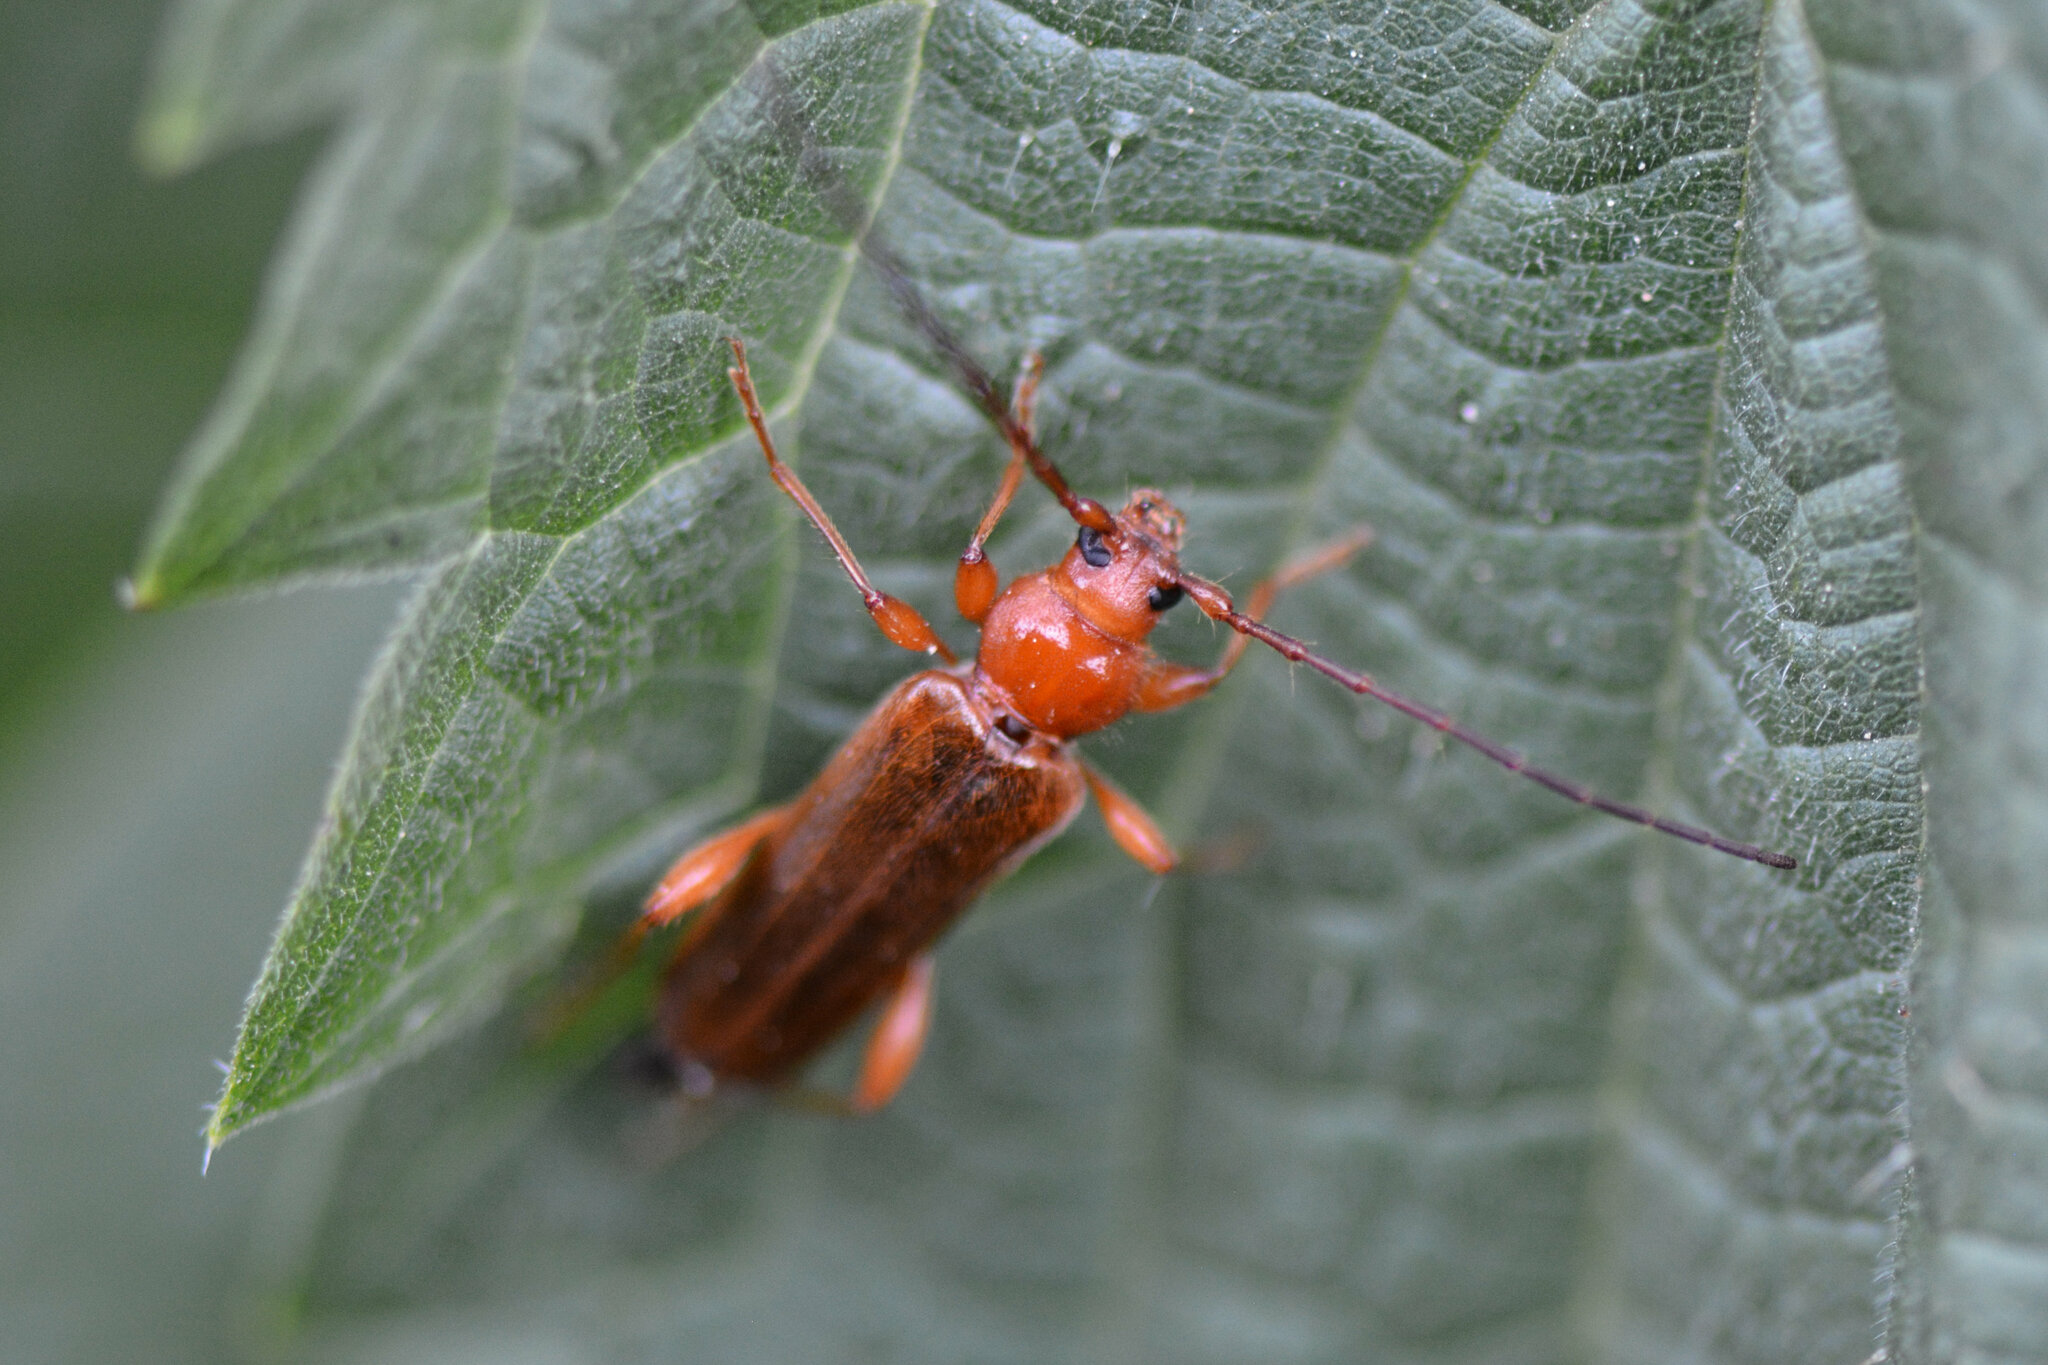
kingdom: Animalia
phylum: Arthropoda
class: Insecta
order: Coleoptera
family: Cerambycidae
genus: Phymatodes
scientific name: Phymatodes testaceus
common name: Long-horned beetle
